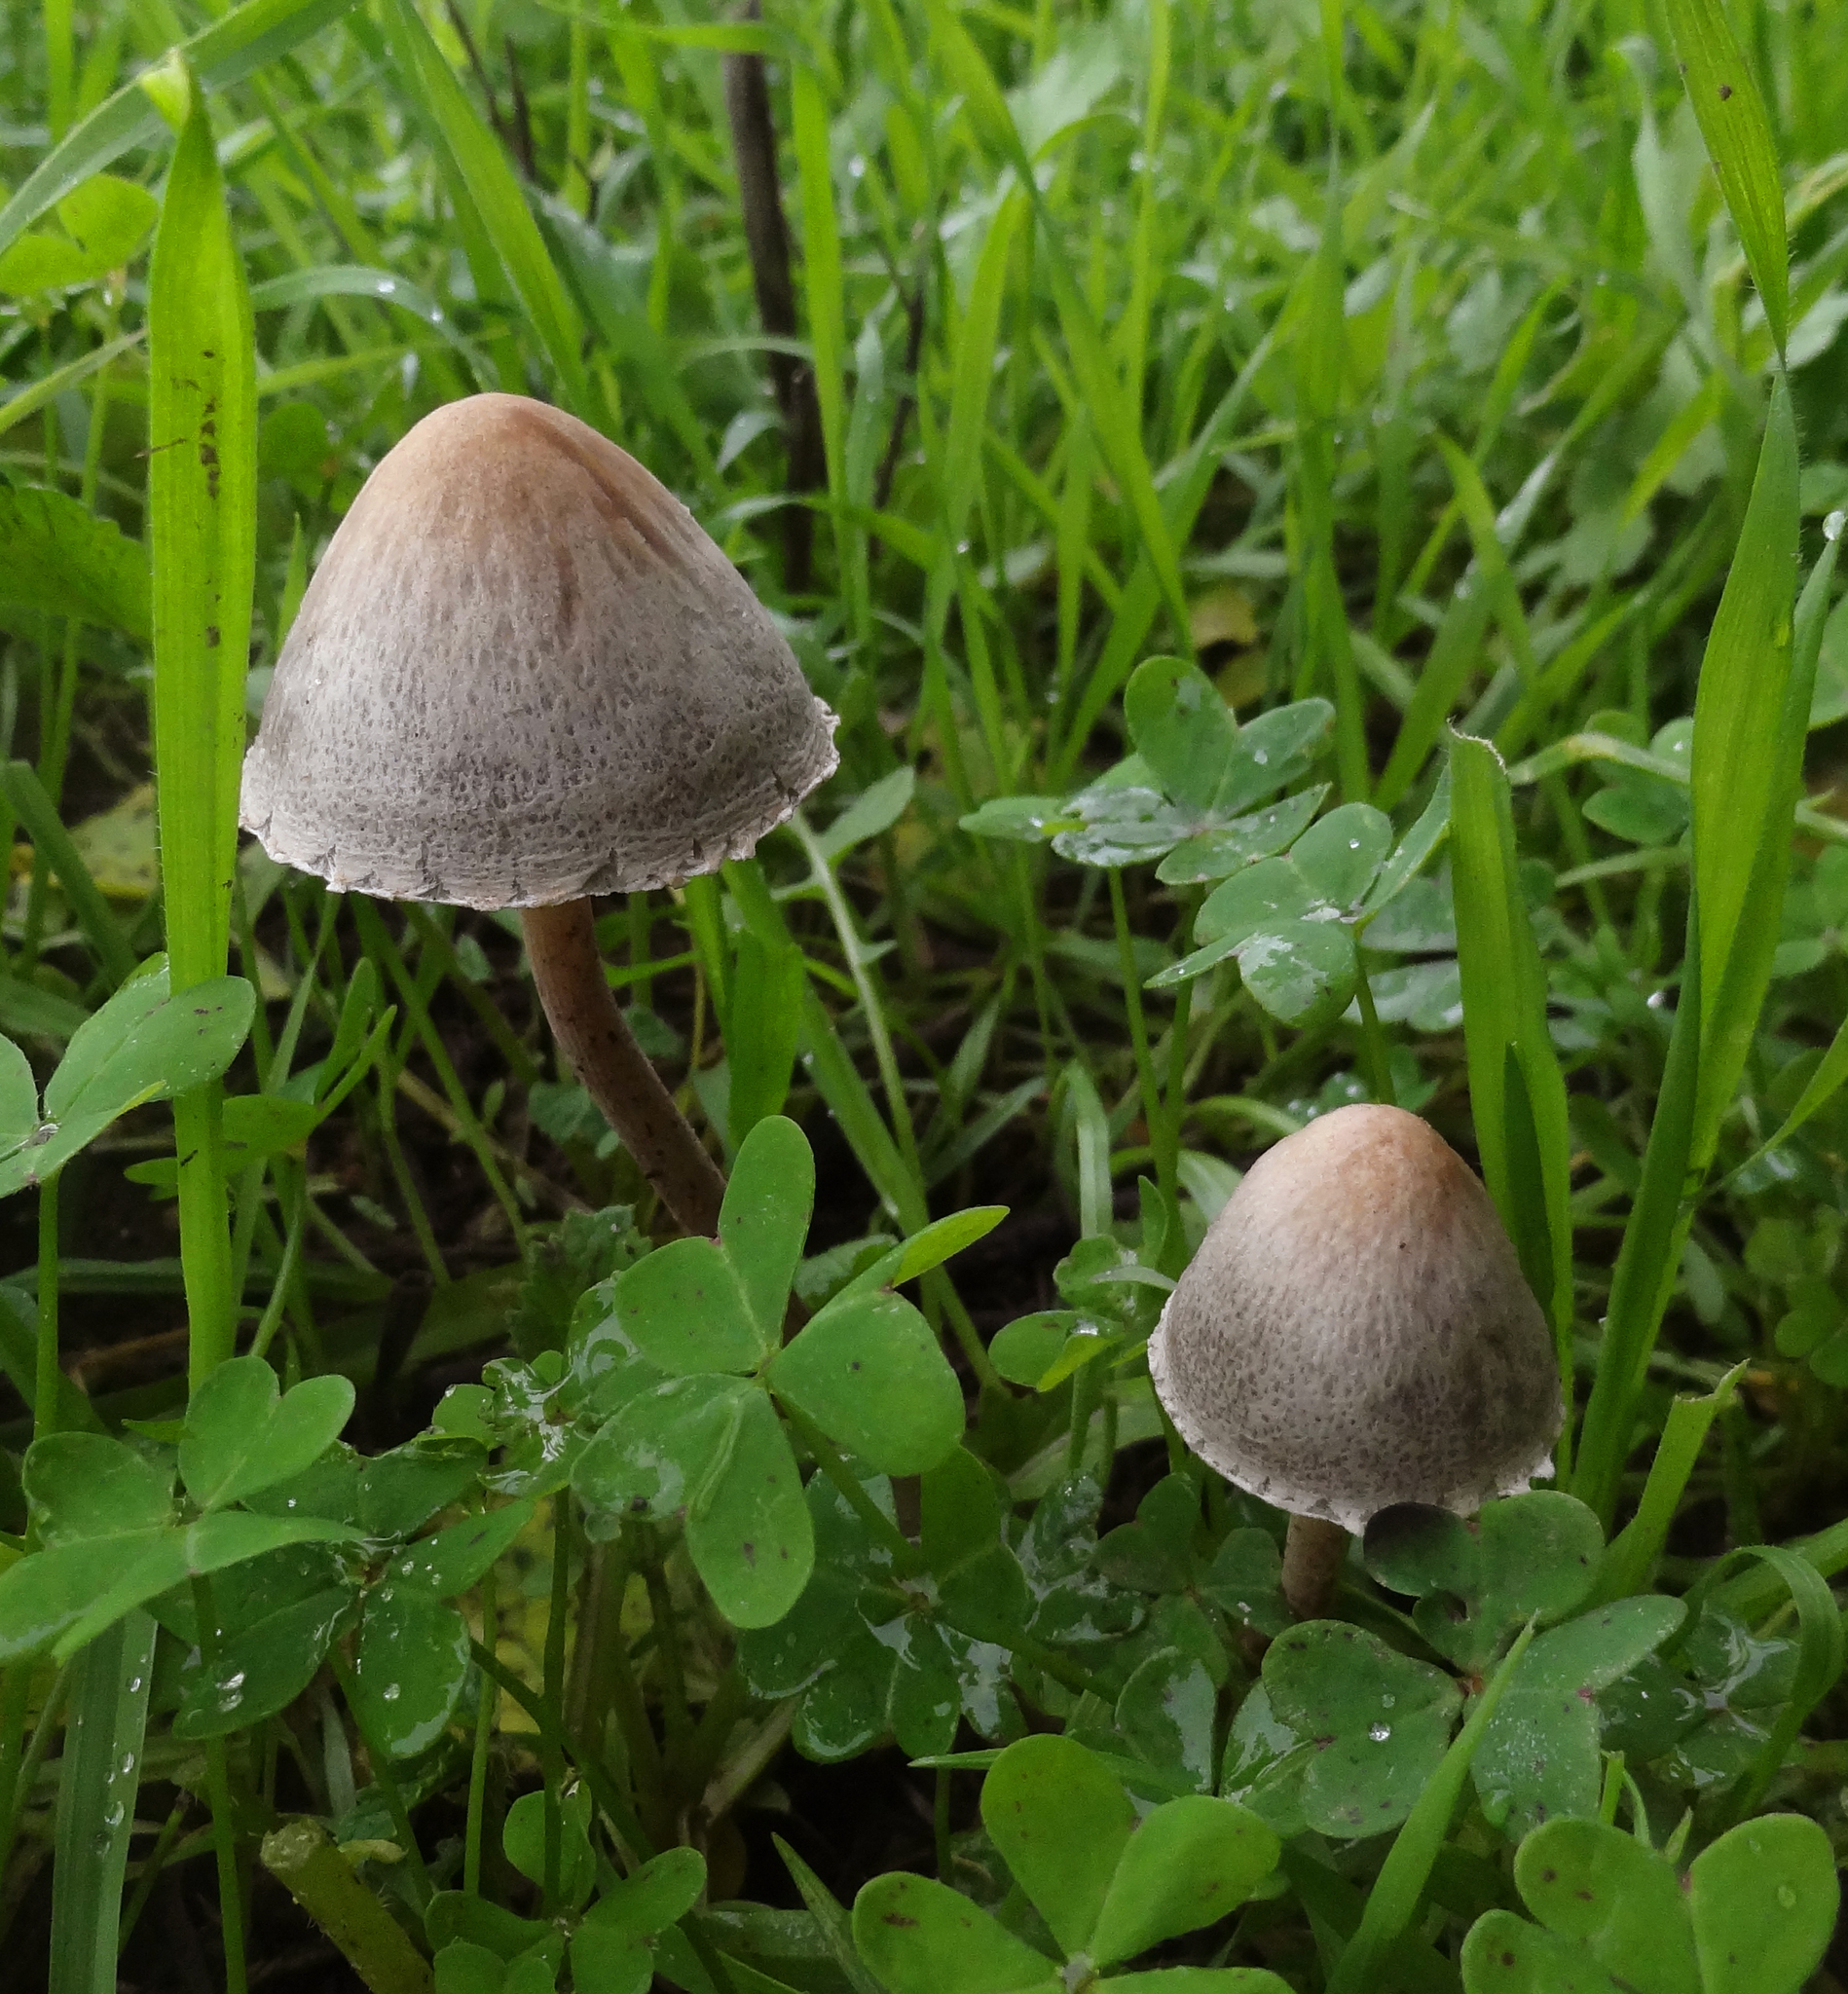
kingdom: Fungi
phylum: Basidiomycota
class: Agaricomycetes
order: Agaricales
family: Bolbitiaceae
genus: Panaeolus
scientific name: Panaeolus papilionaceus
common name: Petticoat mottlegill
